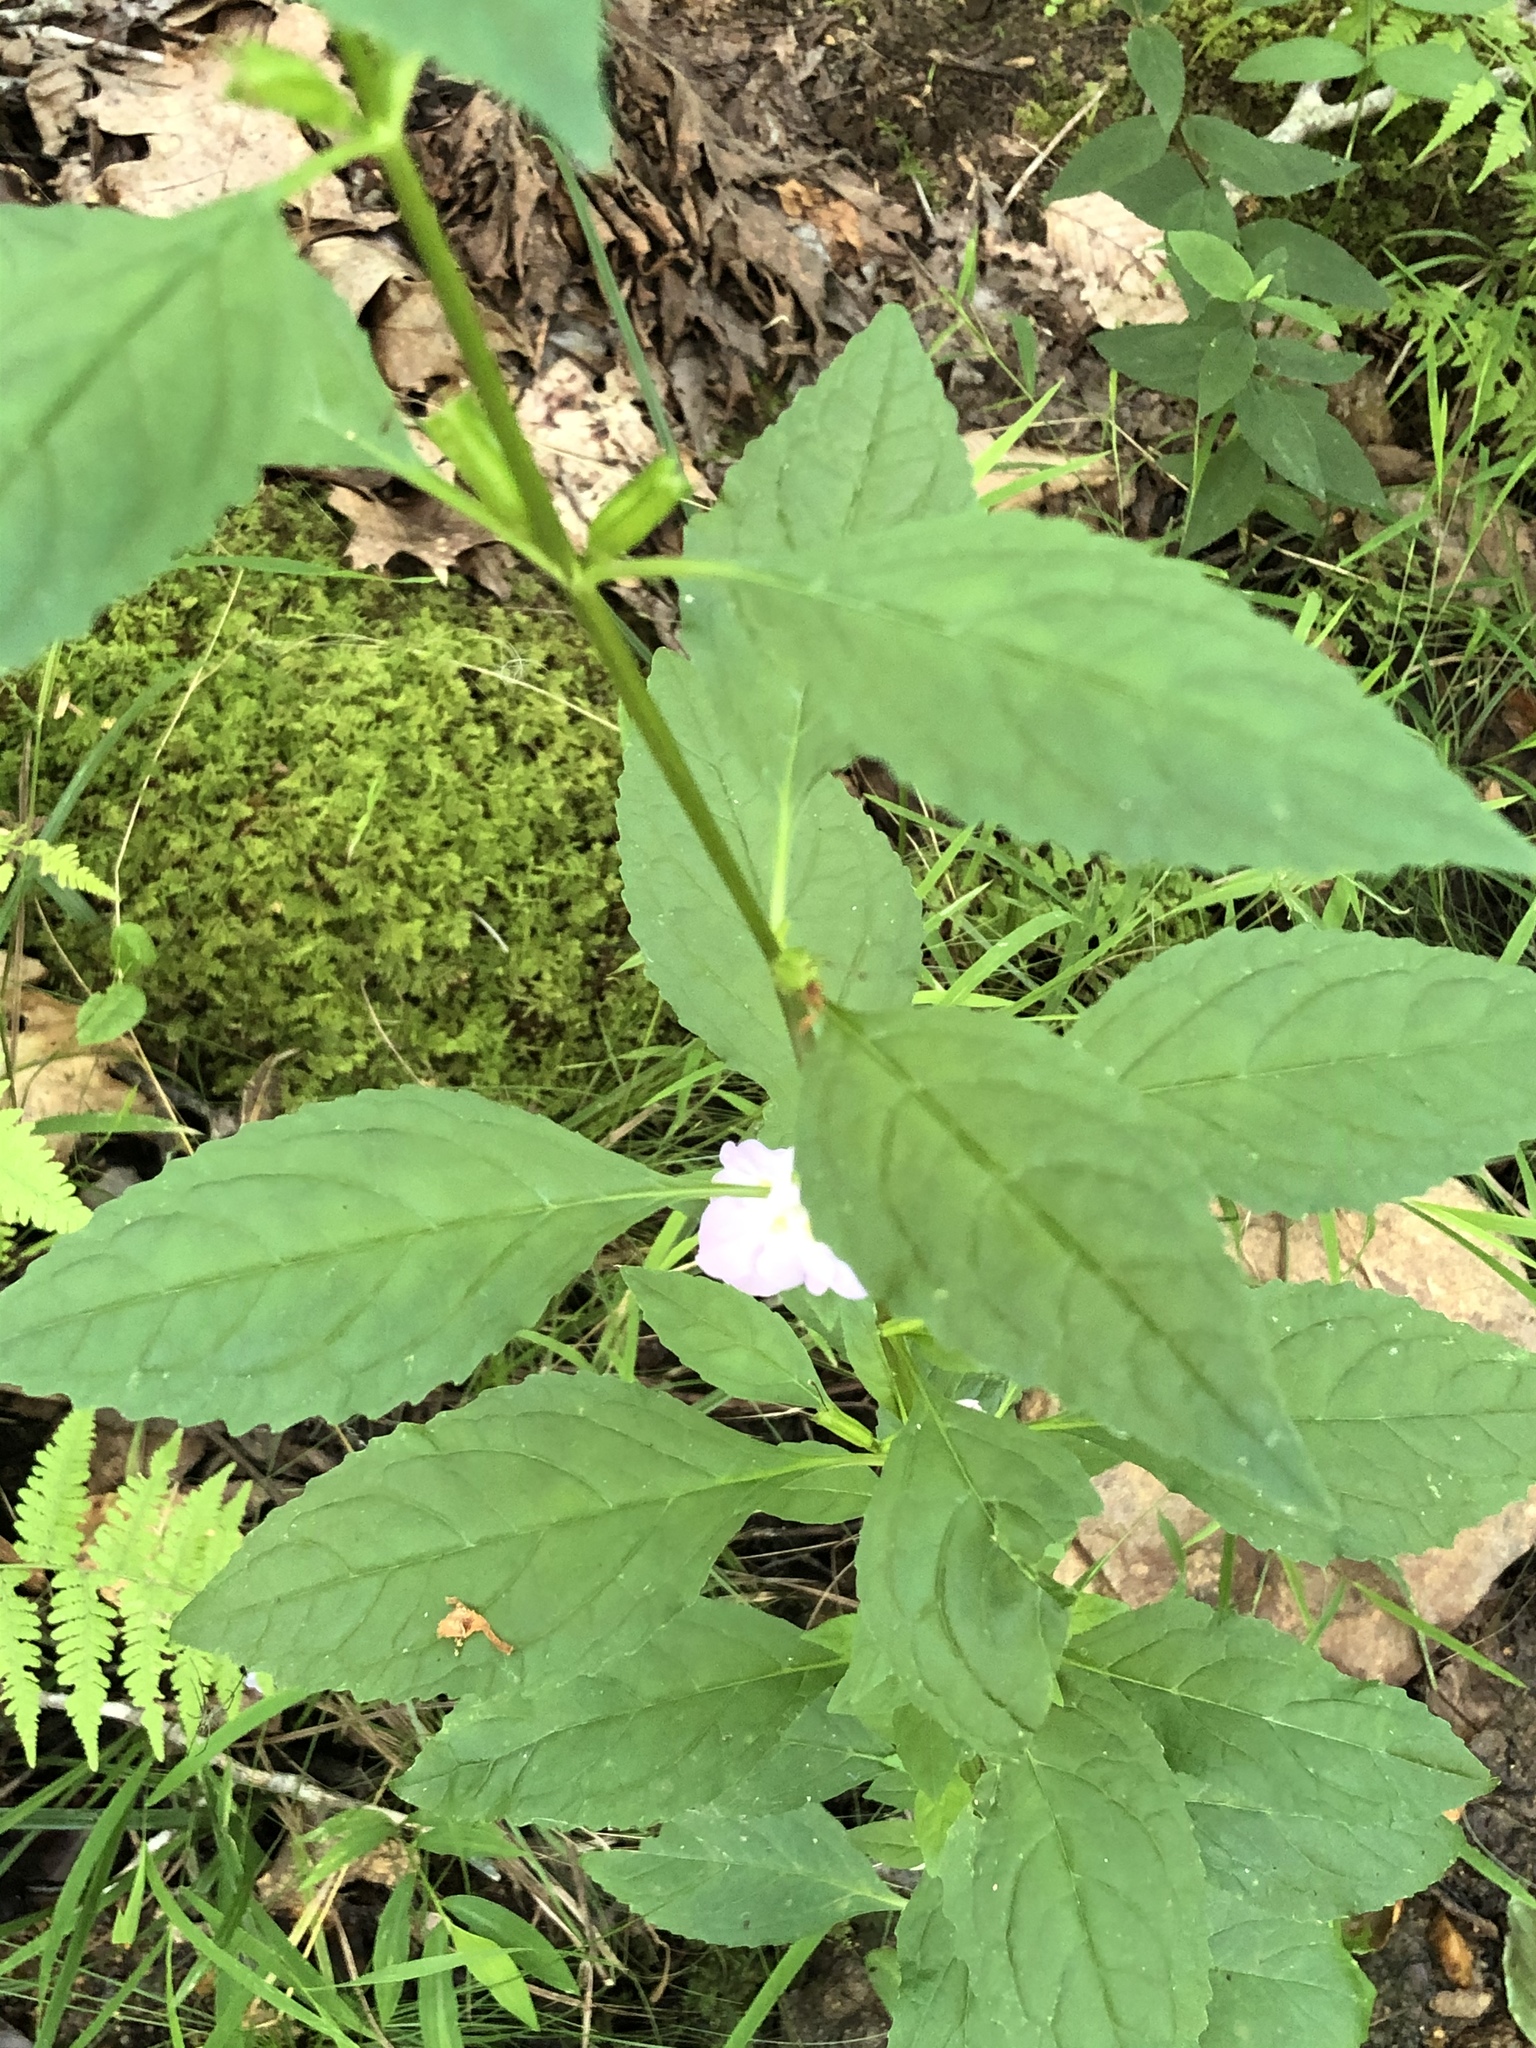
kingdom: Plantae
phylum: Tracheophyta
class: Magnoliopsida
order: Lamiales
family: Phrymaceae
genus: Mimulus
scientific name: Mimulus alatus
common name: Sharp-wing monkey-flower
